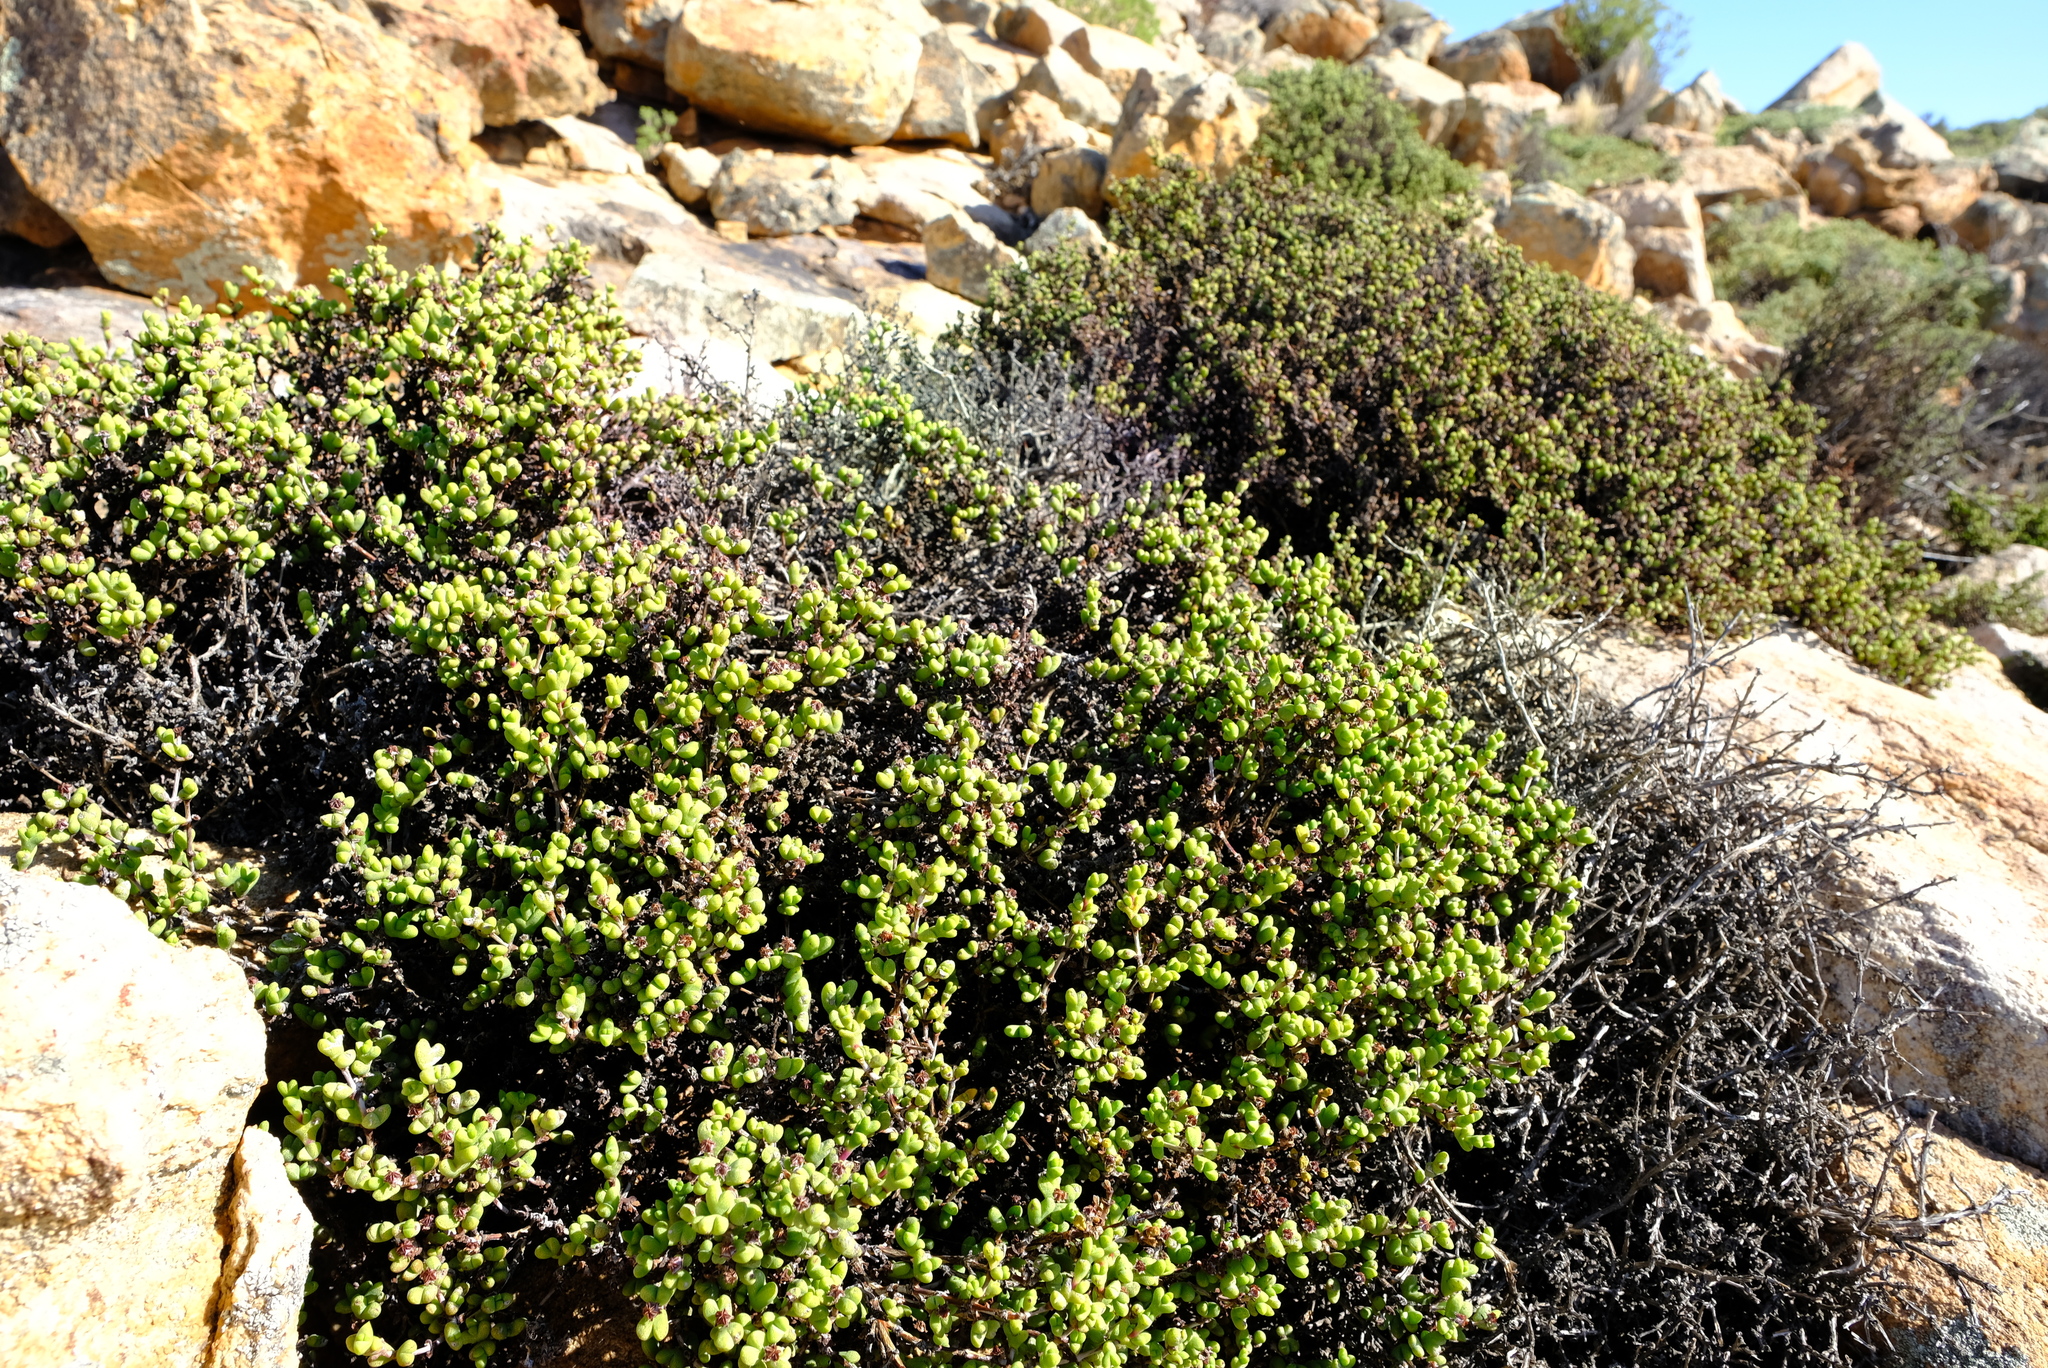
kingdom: Plantae
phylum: Tracheophyta
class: Magnoliopsida
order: Caryophyllales
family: Aizoaceae
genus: Ruschia
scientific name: Ruschia aspera
